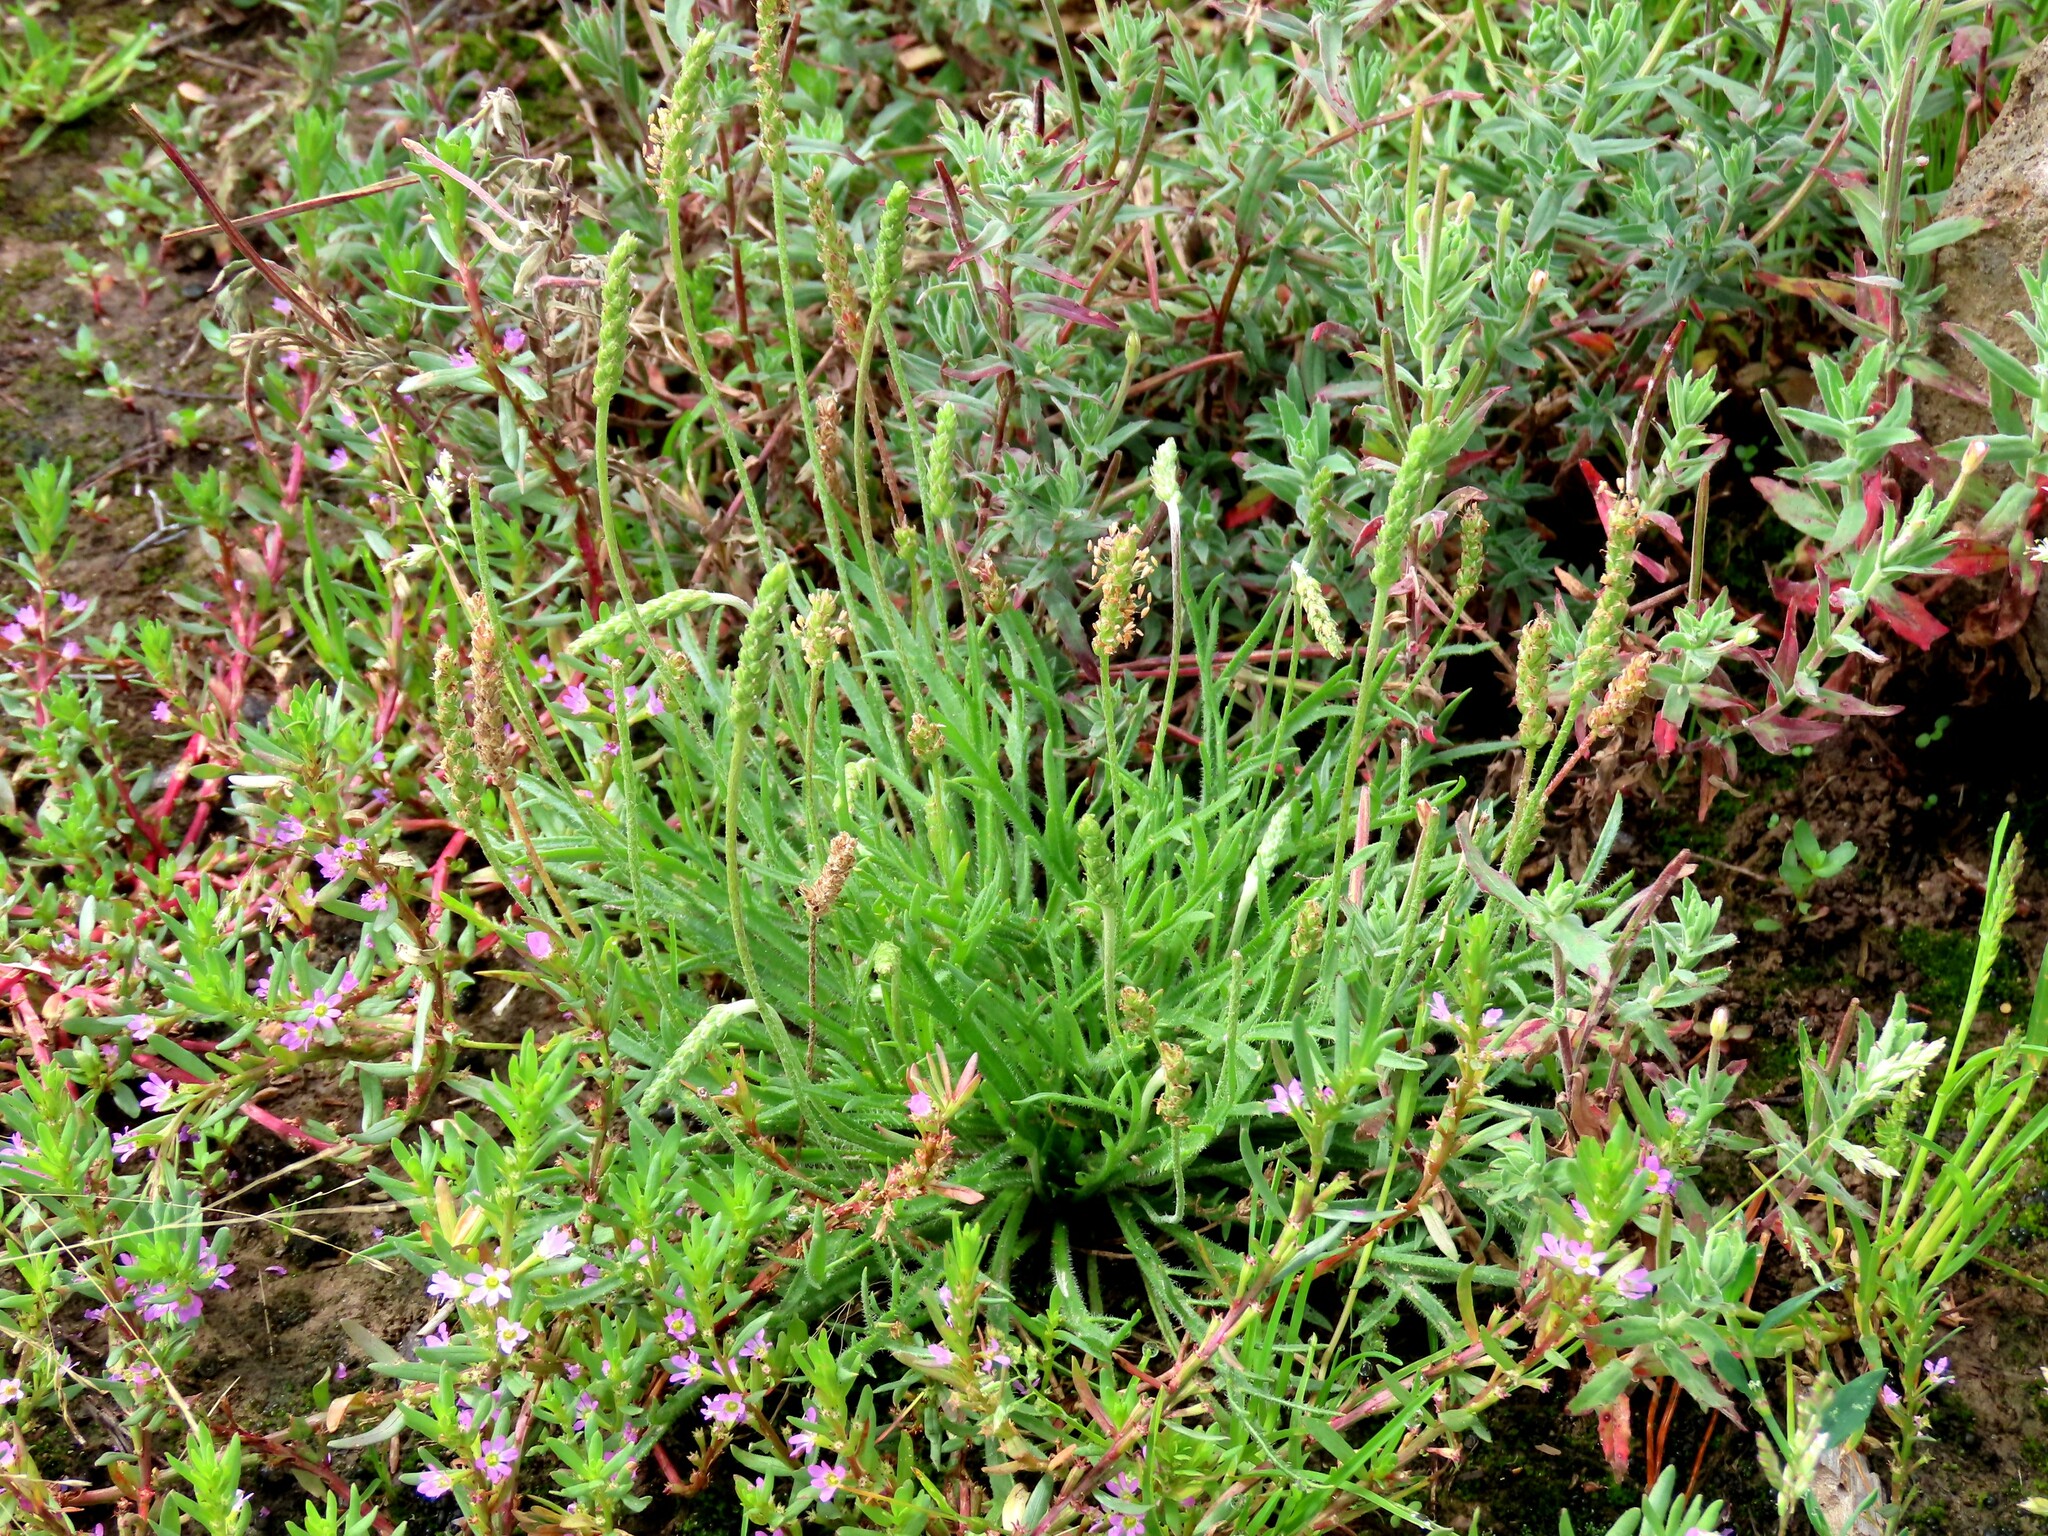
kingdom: Plantae
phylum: Tracheophyta
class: Magnoliopsida
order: Lamiales
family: Plantaginaceae
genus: Plantago
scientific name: Plantago coronopus
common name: Buck's-horn plantain
